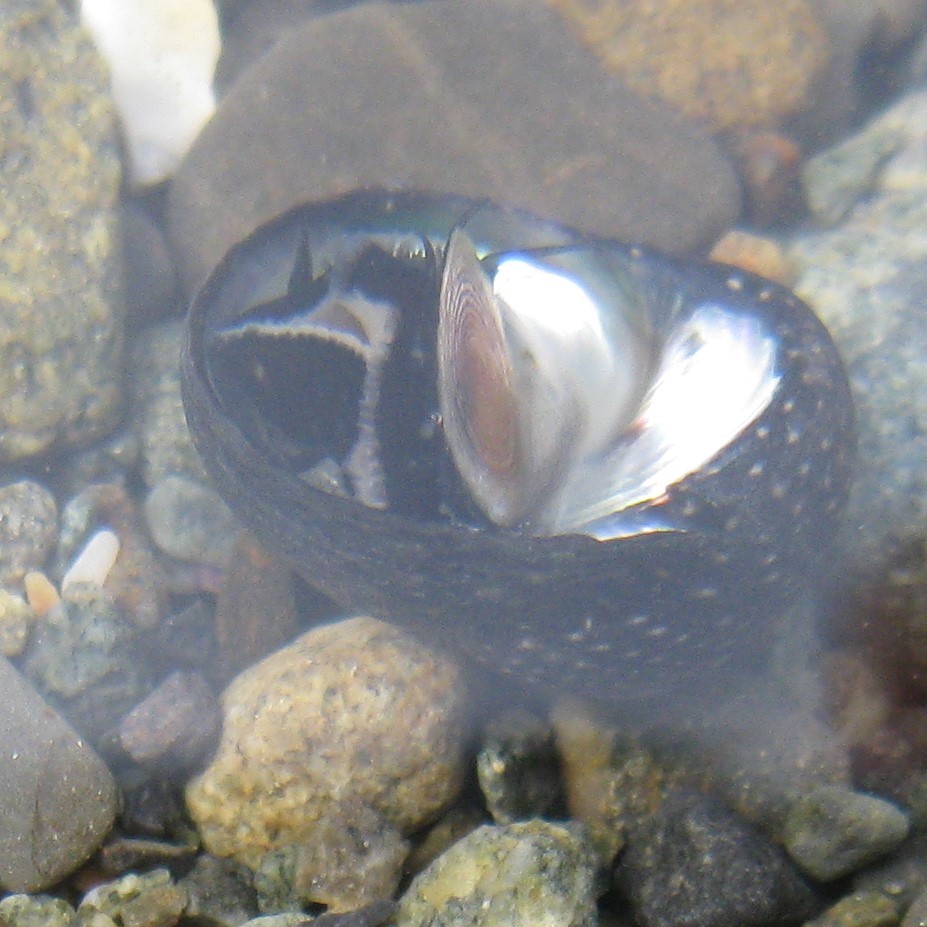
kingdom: Animalia
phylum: Mollusca
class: Gastropoda
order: Trochida
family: Trochidae
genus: Diloma
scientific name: Diloma aridum
